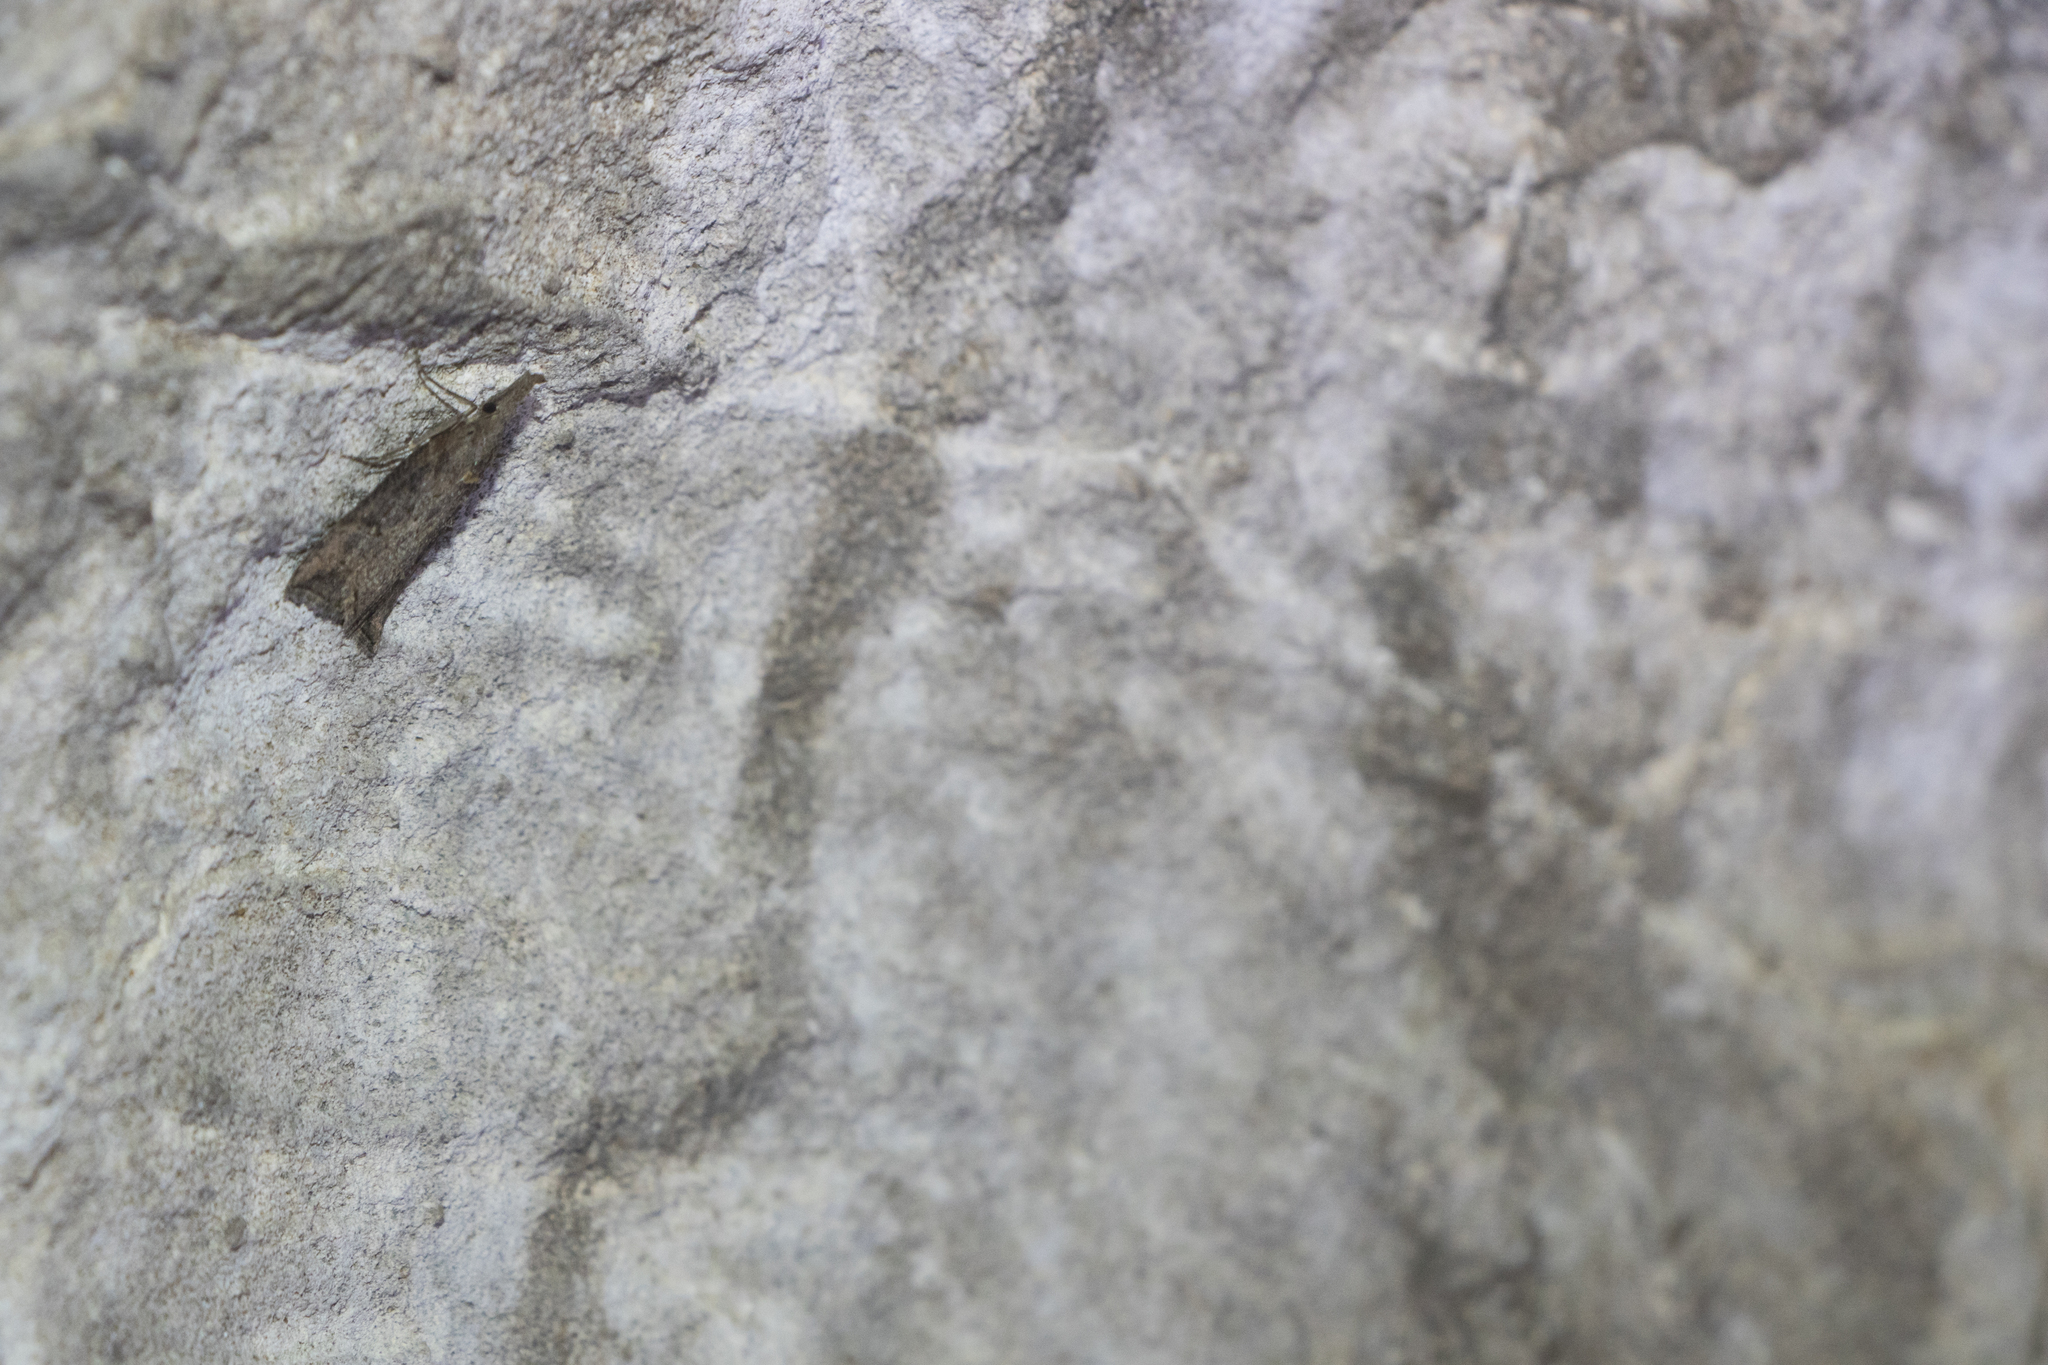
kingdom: Animalia
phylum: Arthropoda
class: Insecta
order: Lepidoptera
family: Erebidae
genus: Hypena
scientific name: Hypena rostralis
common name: Buttoned snout
